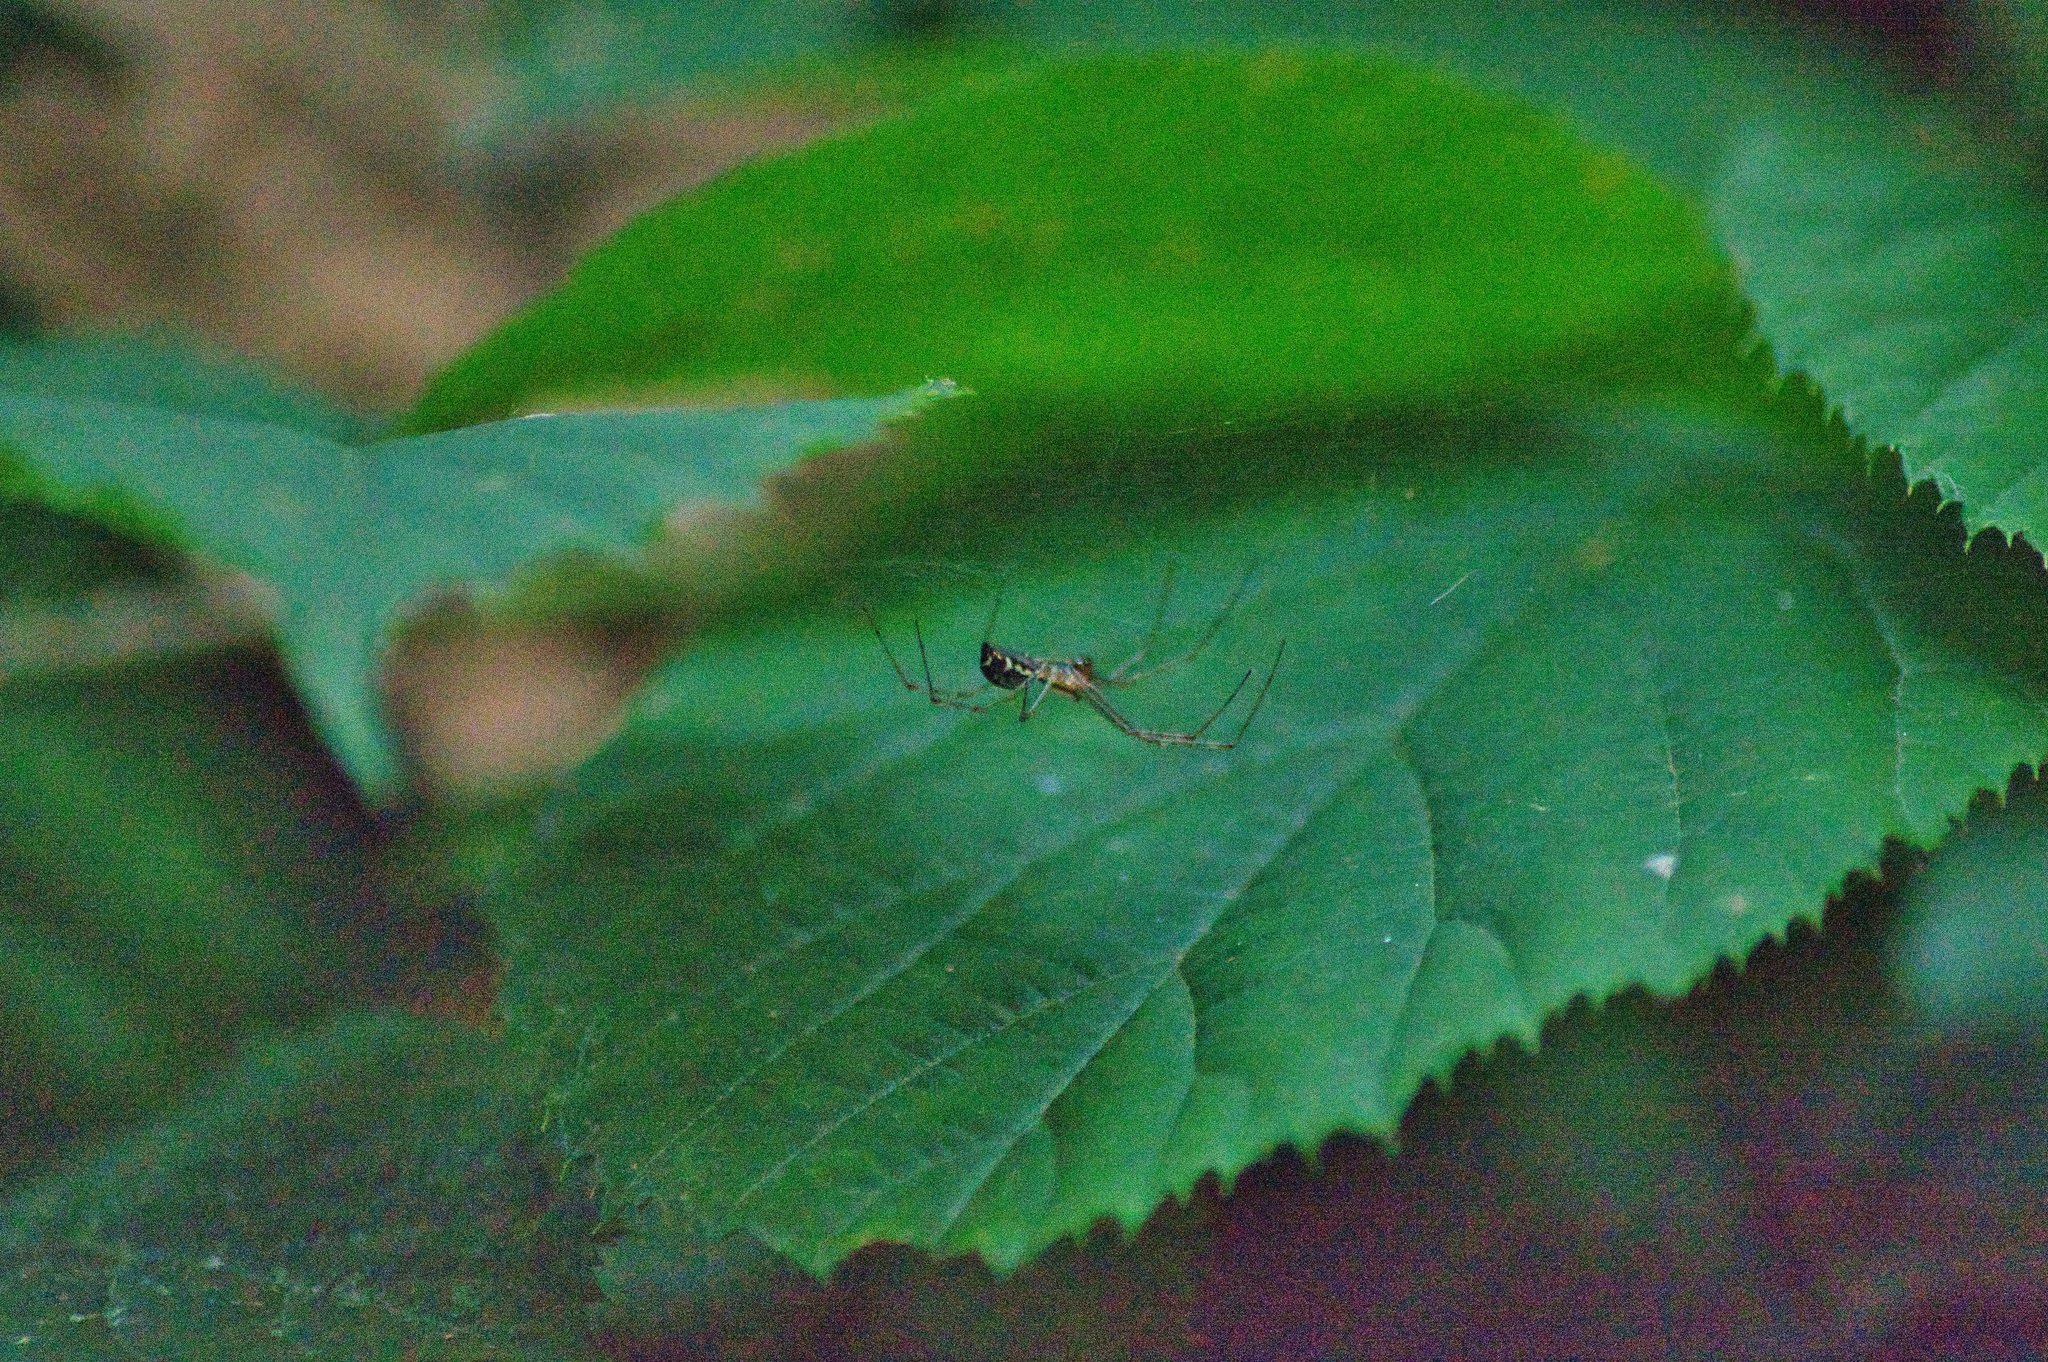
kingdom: Animalia
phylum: Arthropoda
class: Arachnida
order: Araneae
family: Linyphiidae
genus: Linyphia
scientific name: Linyphia triangularis
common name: Money spider
